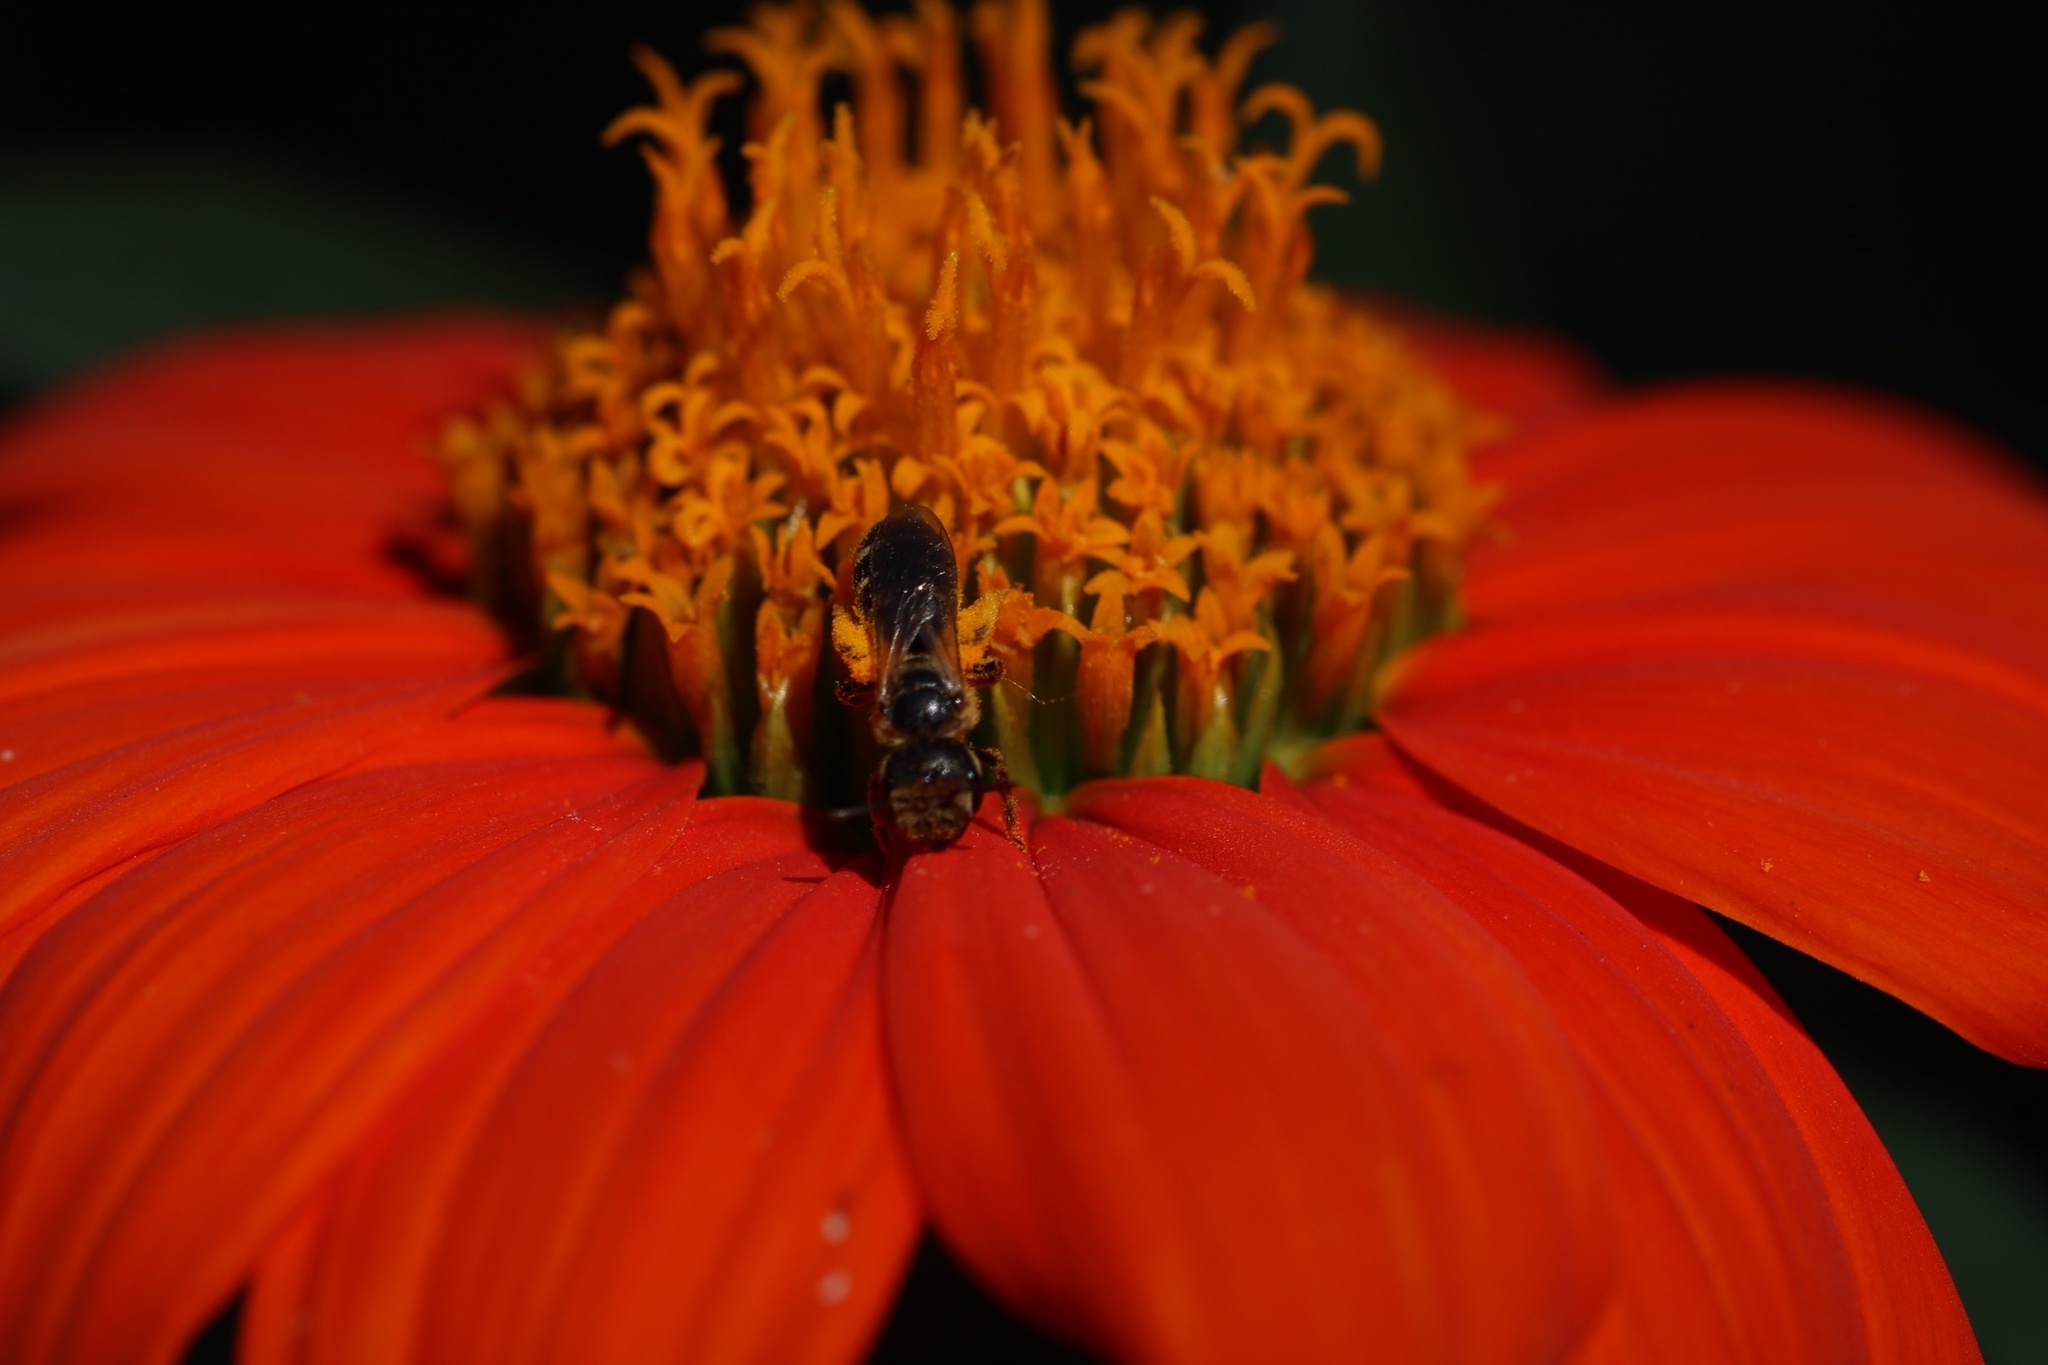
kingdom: Animalia
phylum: Arthropoda
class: Insecta
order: Hymenoptera
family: Halictidae
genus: Halictus
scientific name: Halictus ligatus
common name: Ligated furrow bee
